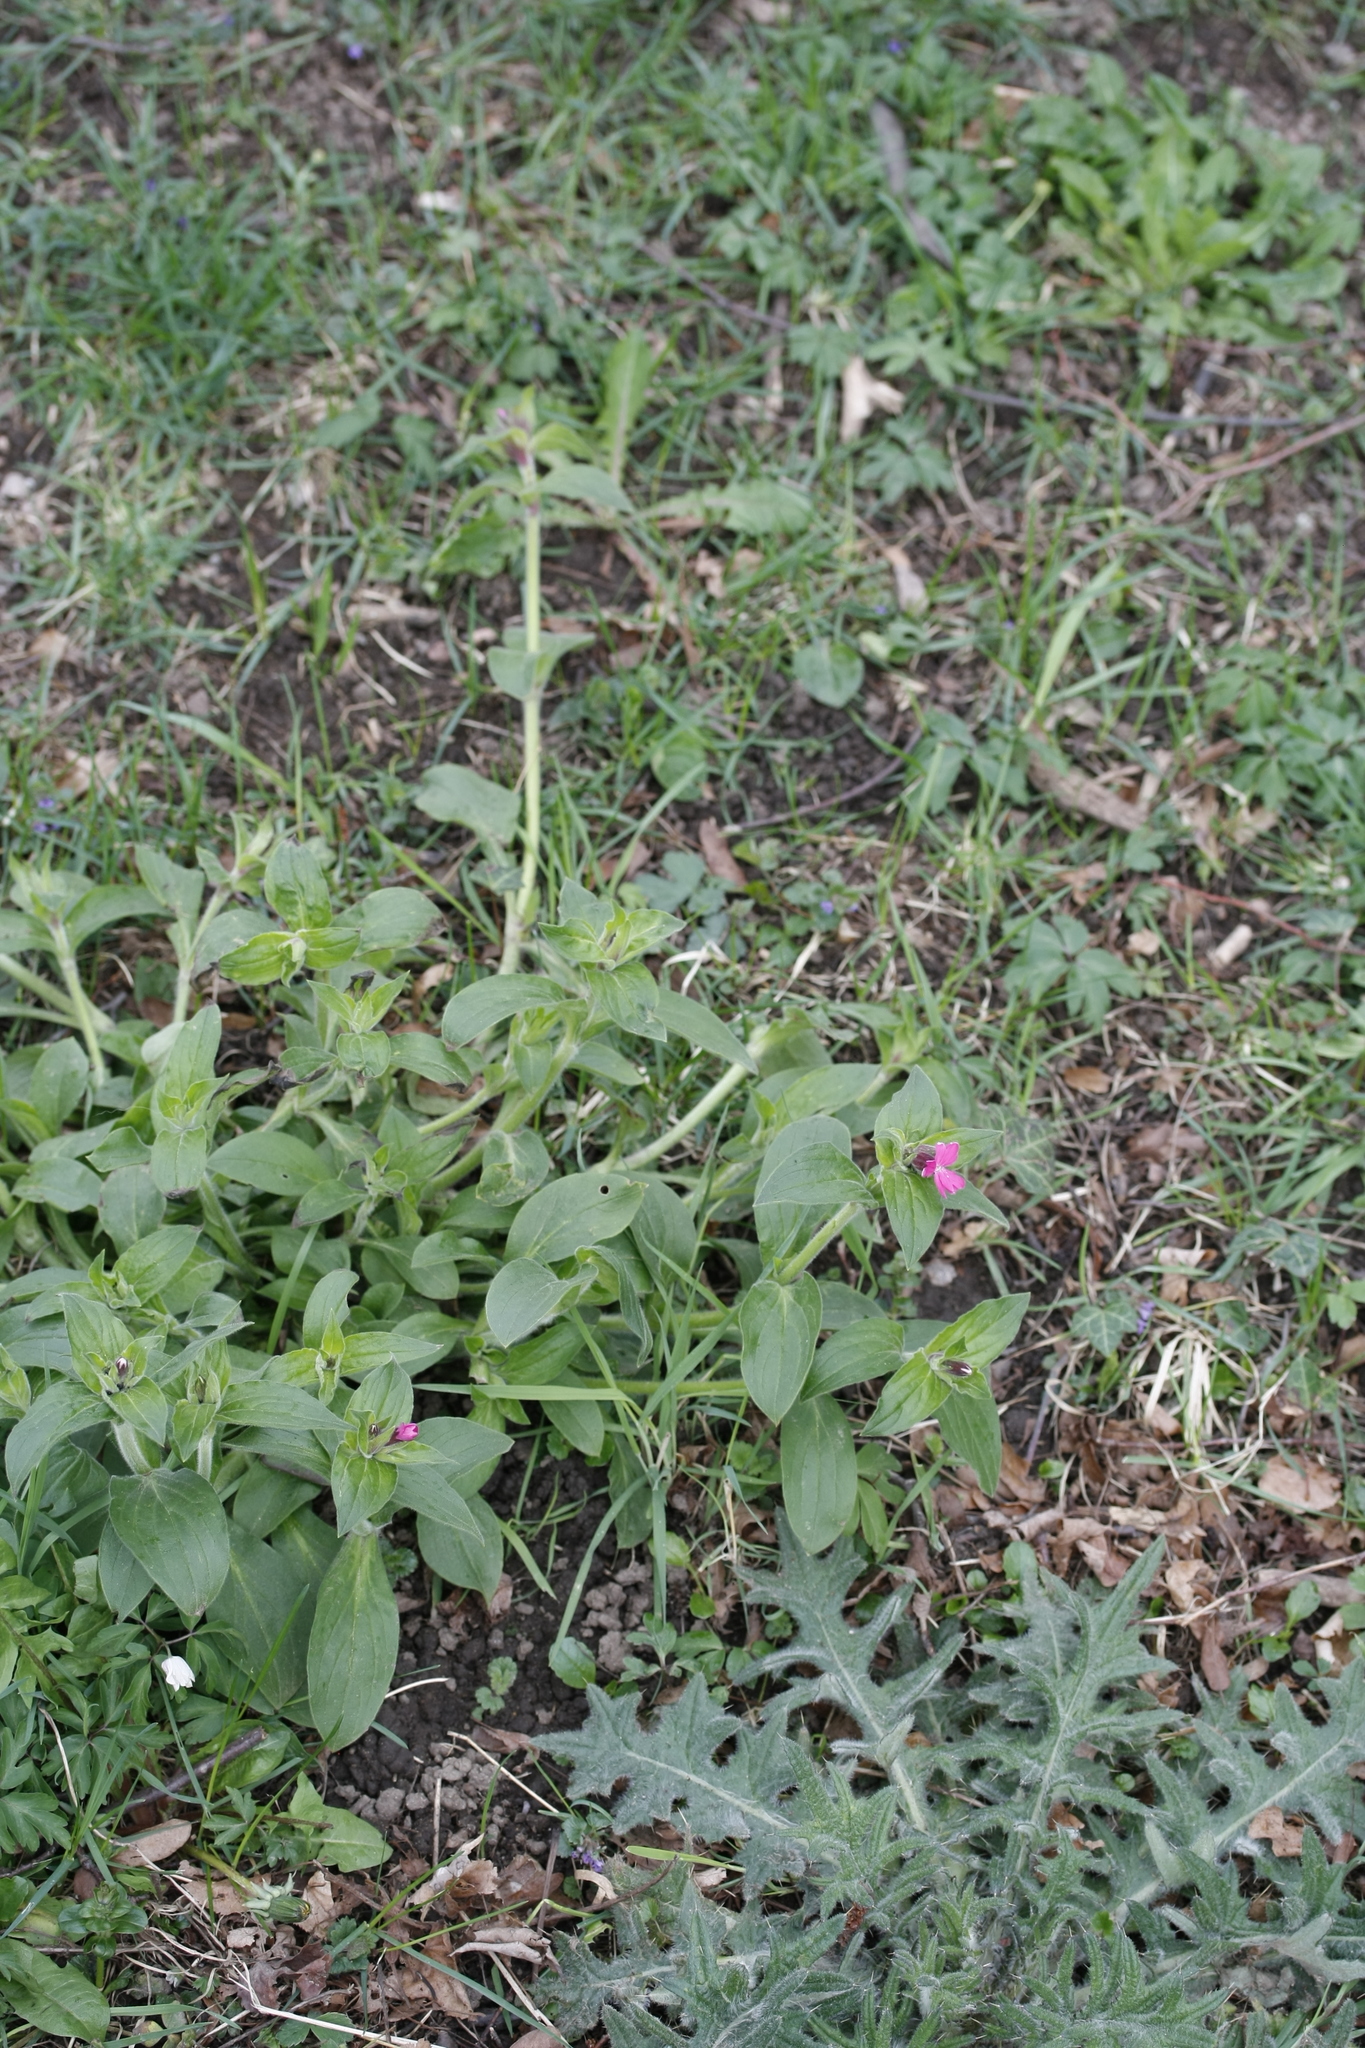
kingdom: Plantae
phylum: Tracheophyta
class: Magnoliopsida
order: Caryophyllales
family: Caryophyllaceae
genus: Silene
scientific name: Silene dioica
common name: Red campion
